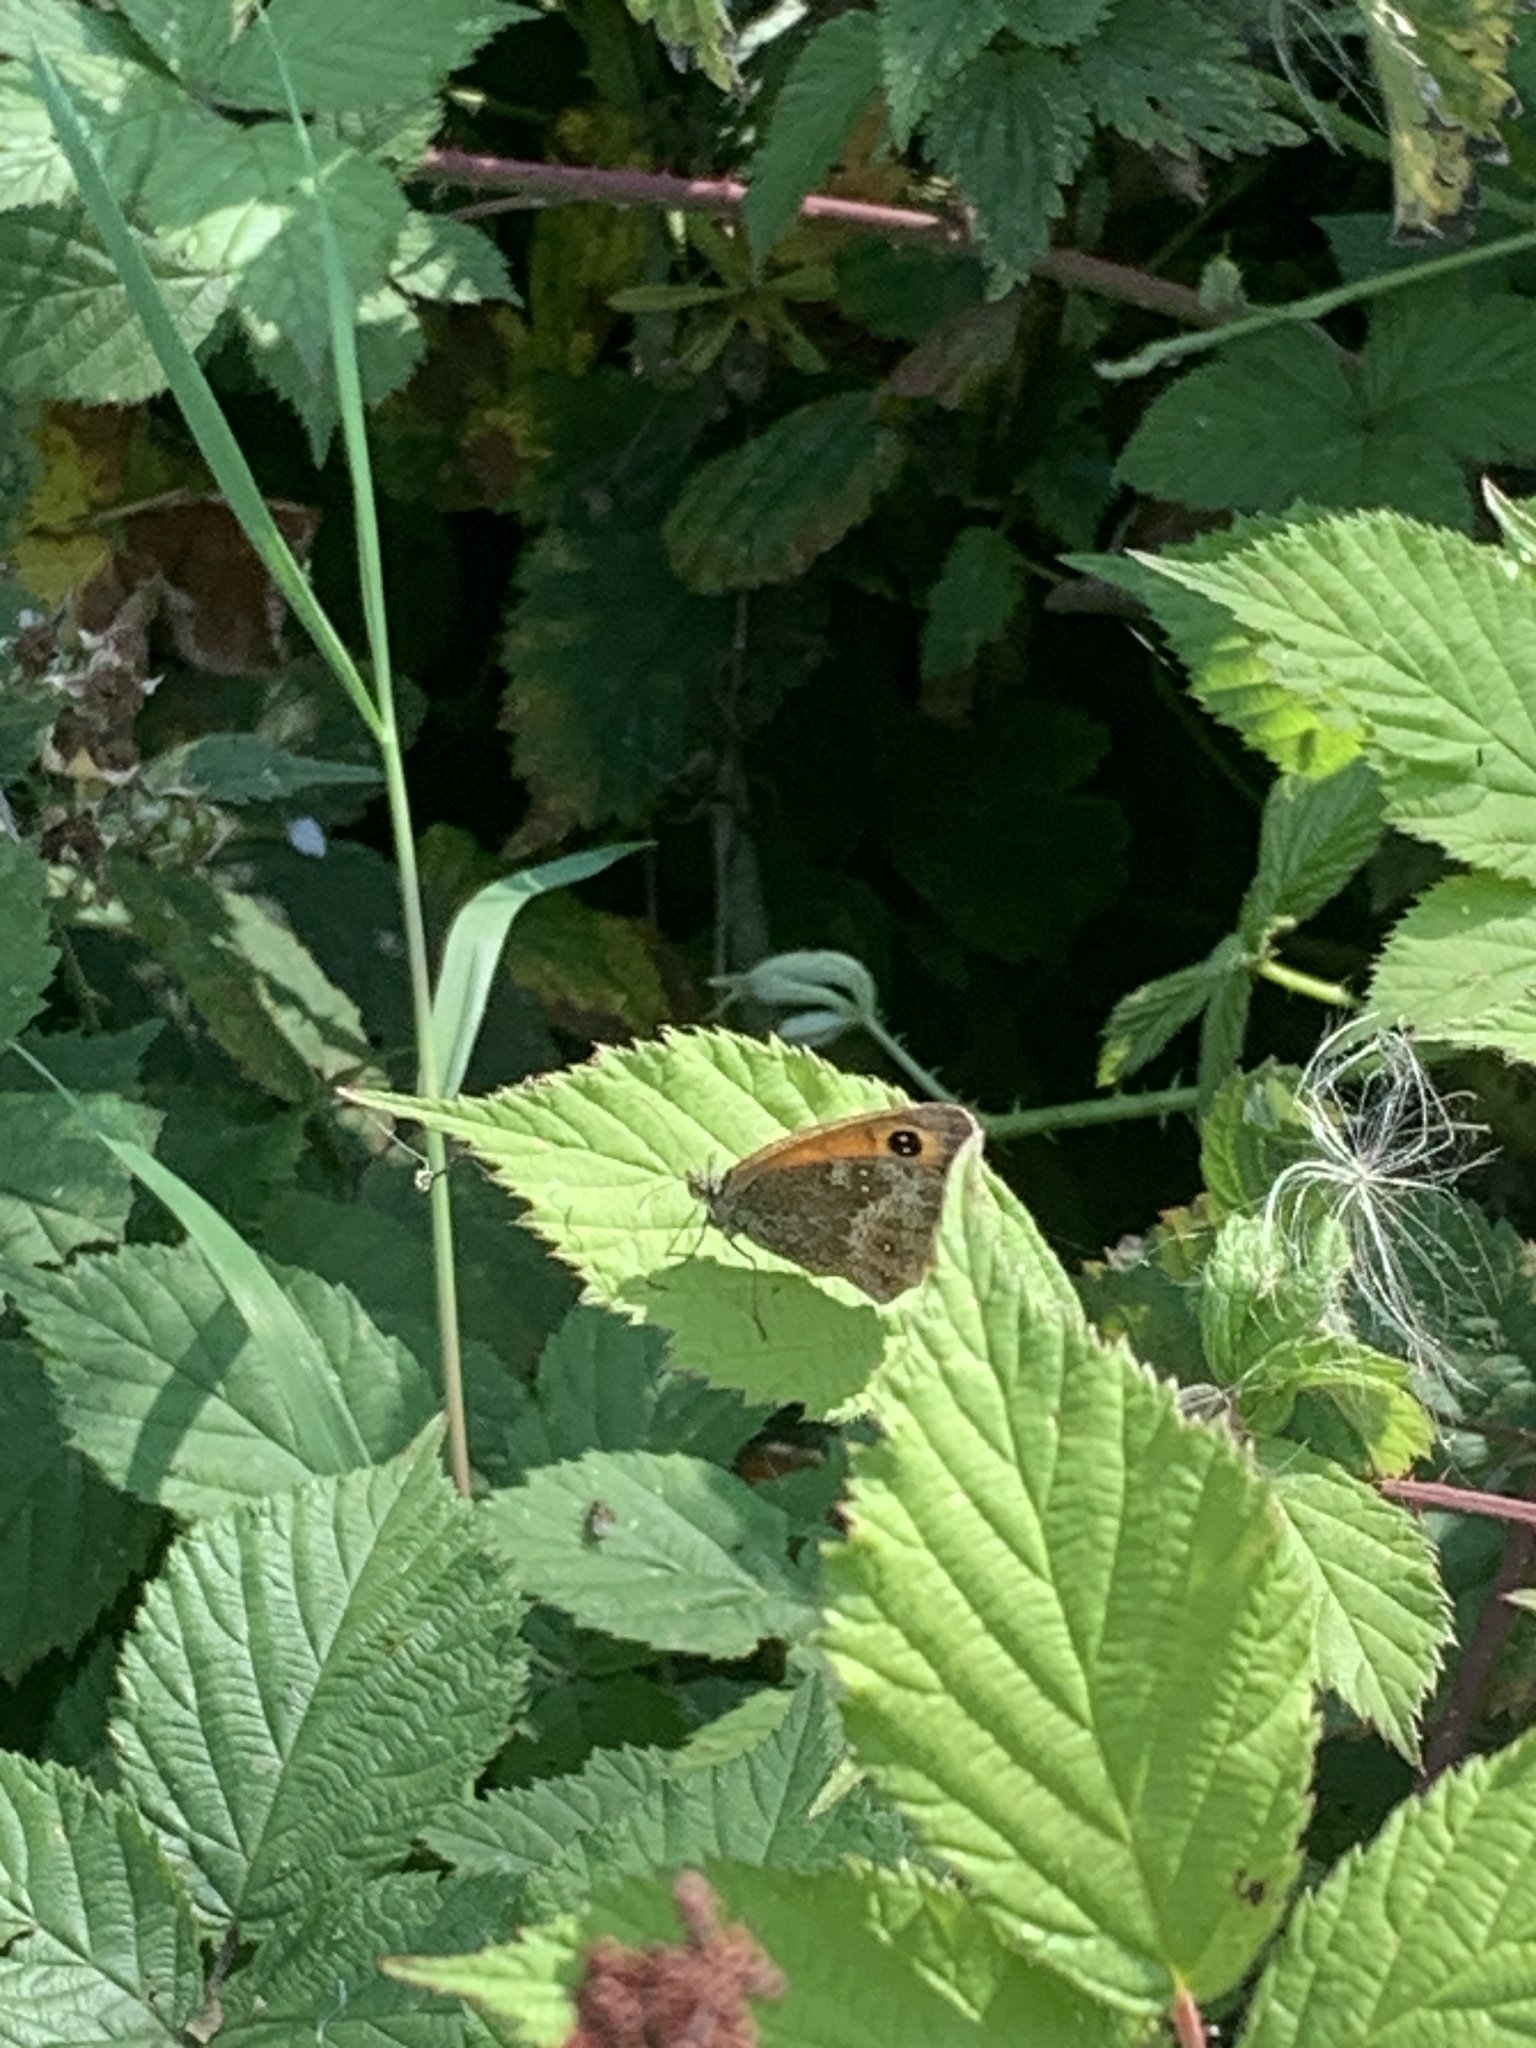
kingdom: Animalia
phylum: Arthropoda
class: Insecta
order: Lepidoptera
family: Nymphalidae
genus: Pyronia
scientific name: Pyronia tithonus
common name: Gatekeeper
